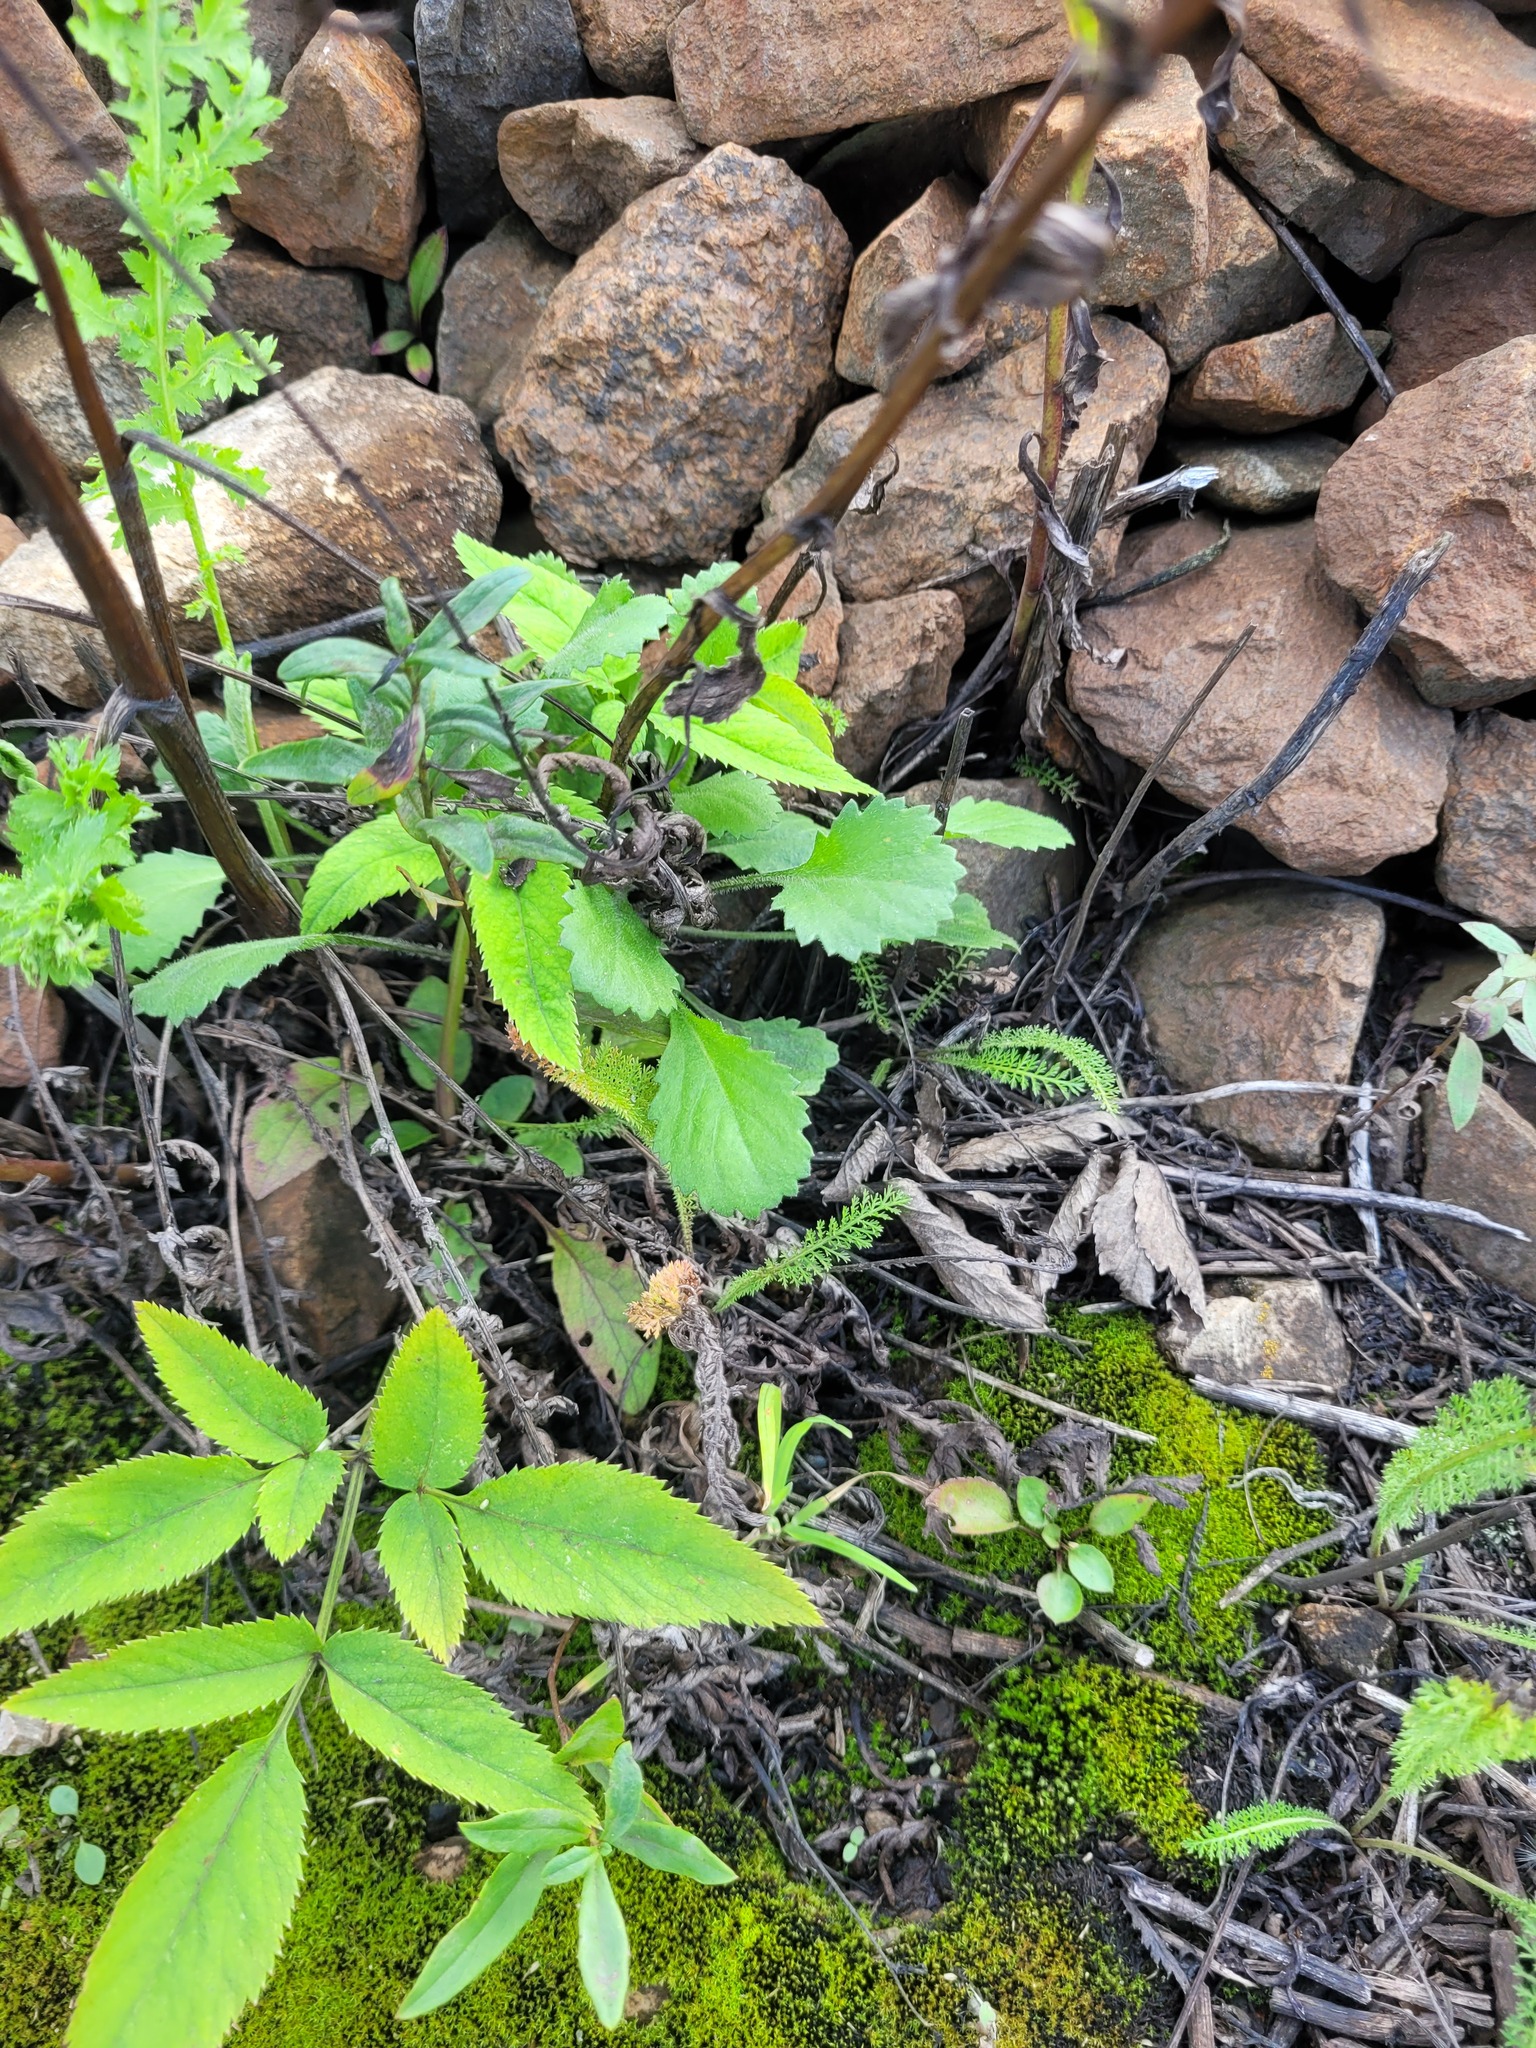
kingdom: Plantae
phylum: Tracheophyta
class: Magnoliopsida
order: Asterales
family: Asteraceae
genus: Leucanthemum
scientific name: Leucanthemum vulgare
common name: Oxeye daisy
